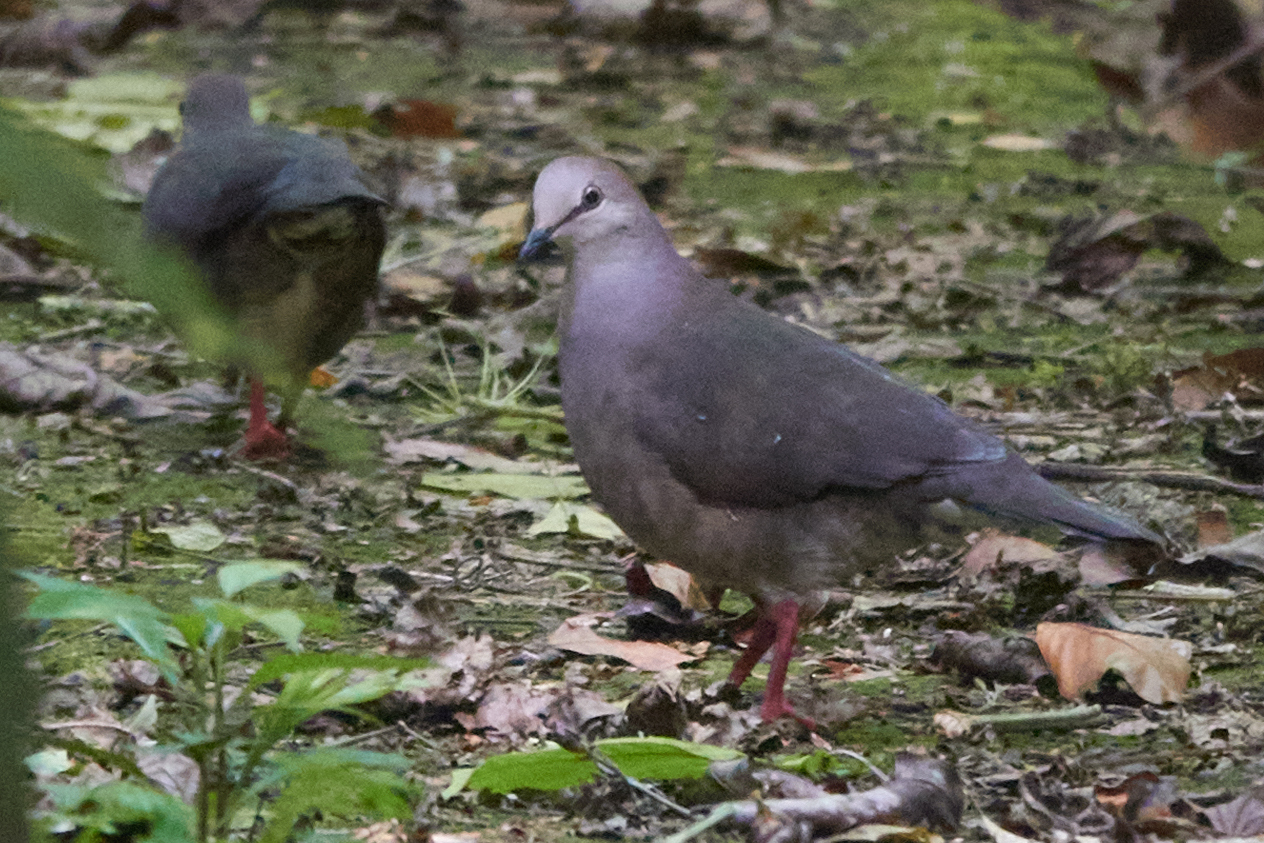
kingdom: Animalia
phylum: Chordata
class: Aves
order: Columbiformes
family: Columbidae
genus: Leptotila
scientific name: Leptotila cassinii
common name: Grey-chested dove
